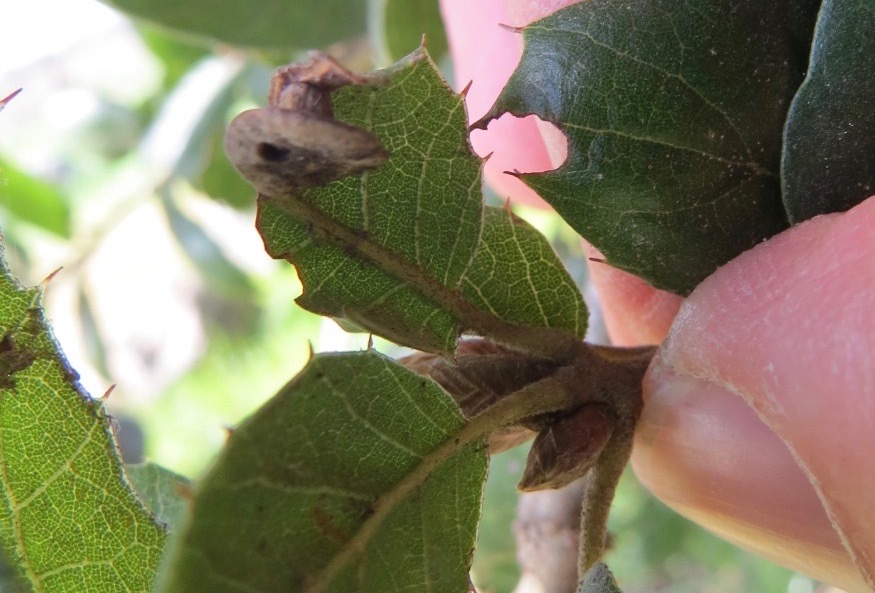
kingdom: Animalia
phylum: Arthropoda
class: Insecta
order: Hymenoptera
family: Cynipidae
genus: Amphibolips
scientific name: Amphibolips quercuspomiformis
